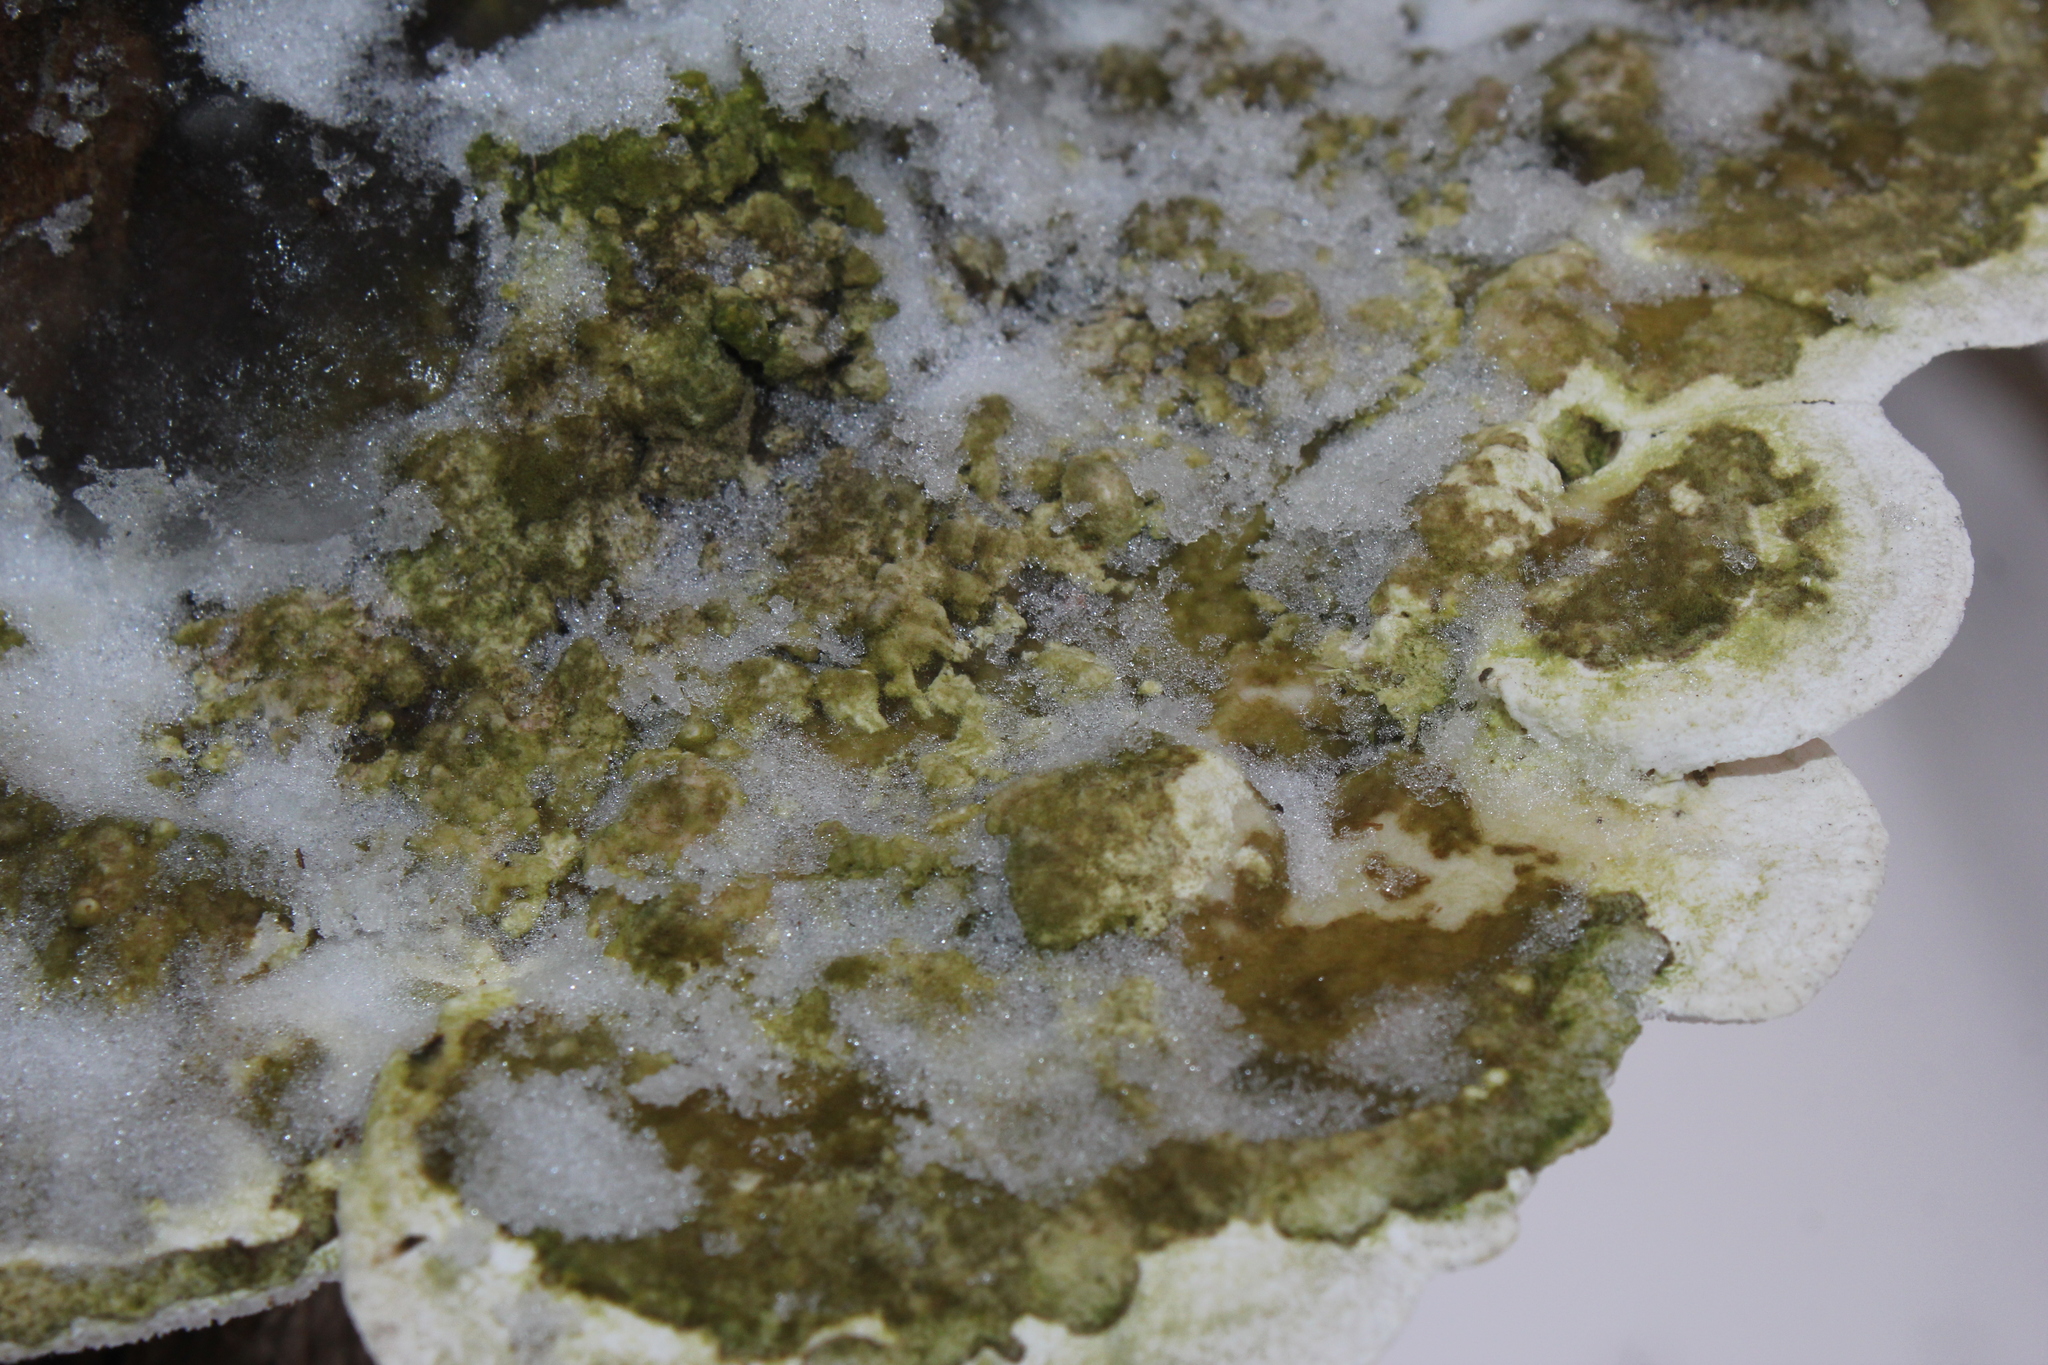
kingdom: Fungi
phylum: Basidiomycota
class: Agaricomycetes
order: Polyporales
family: Polyporaceae
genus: Trametes
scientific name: Trametes gibbosa
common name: Lumpy bracket
